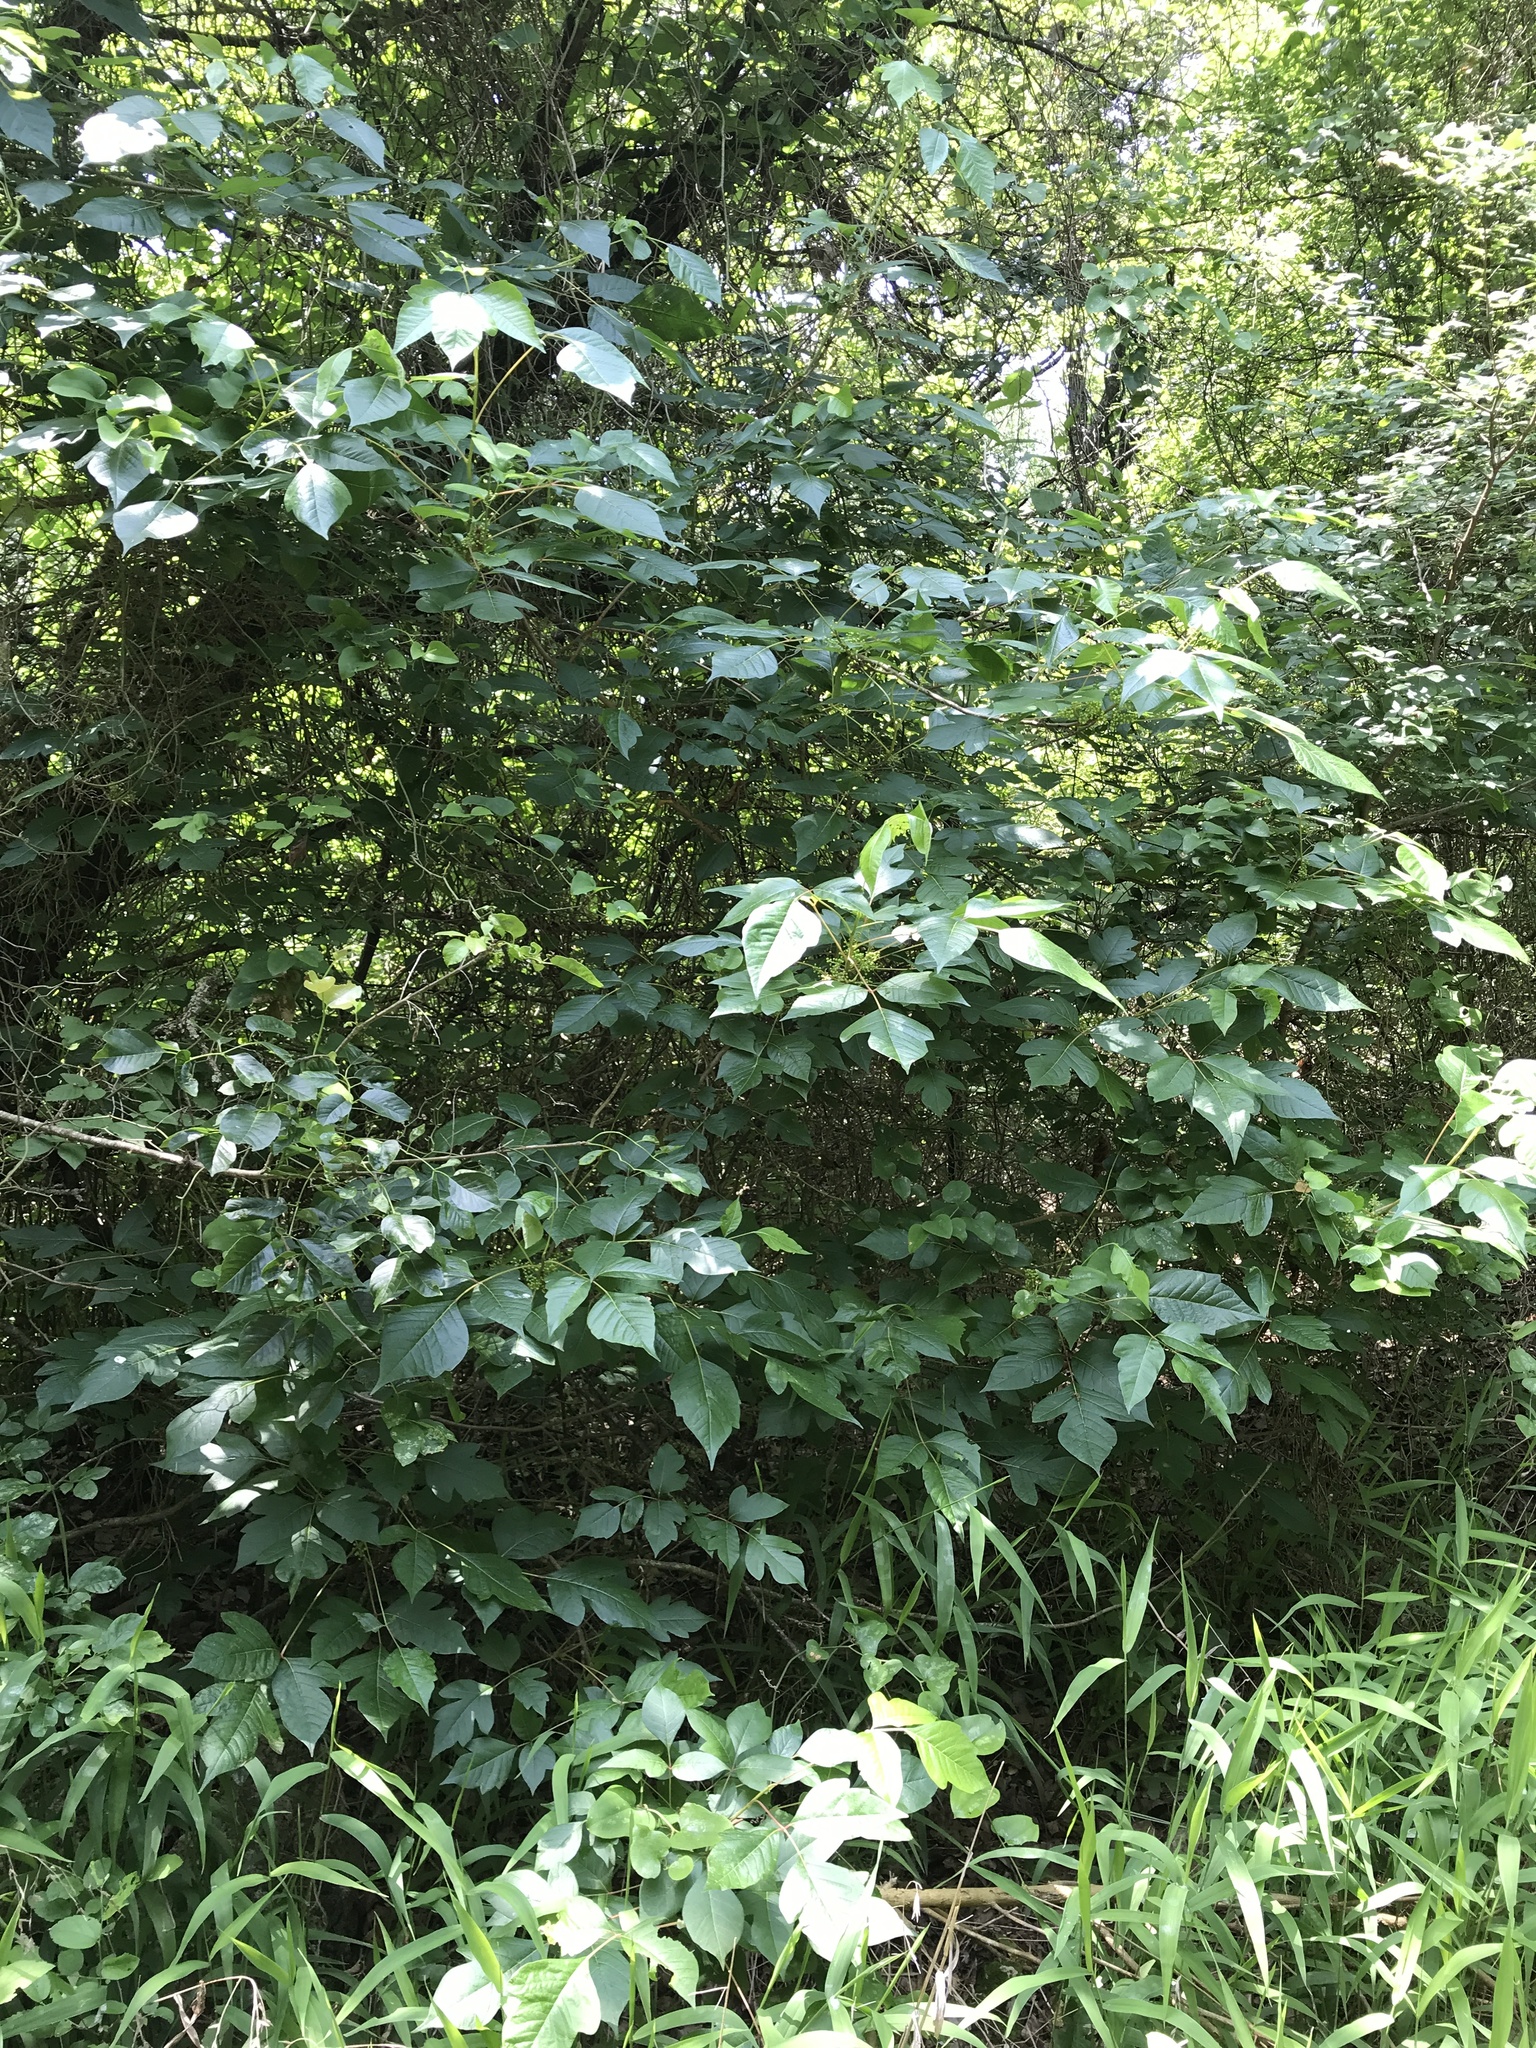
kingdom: Plantae
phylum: Tracheophyta
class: Magnoliopsida
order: Sapindales
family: Anacardiaceae
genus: Toxicodendron
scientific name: Toxicodendron radicans
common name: Poison ivy
